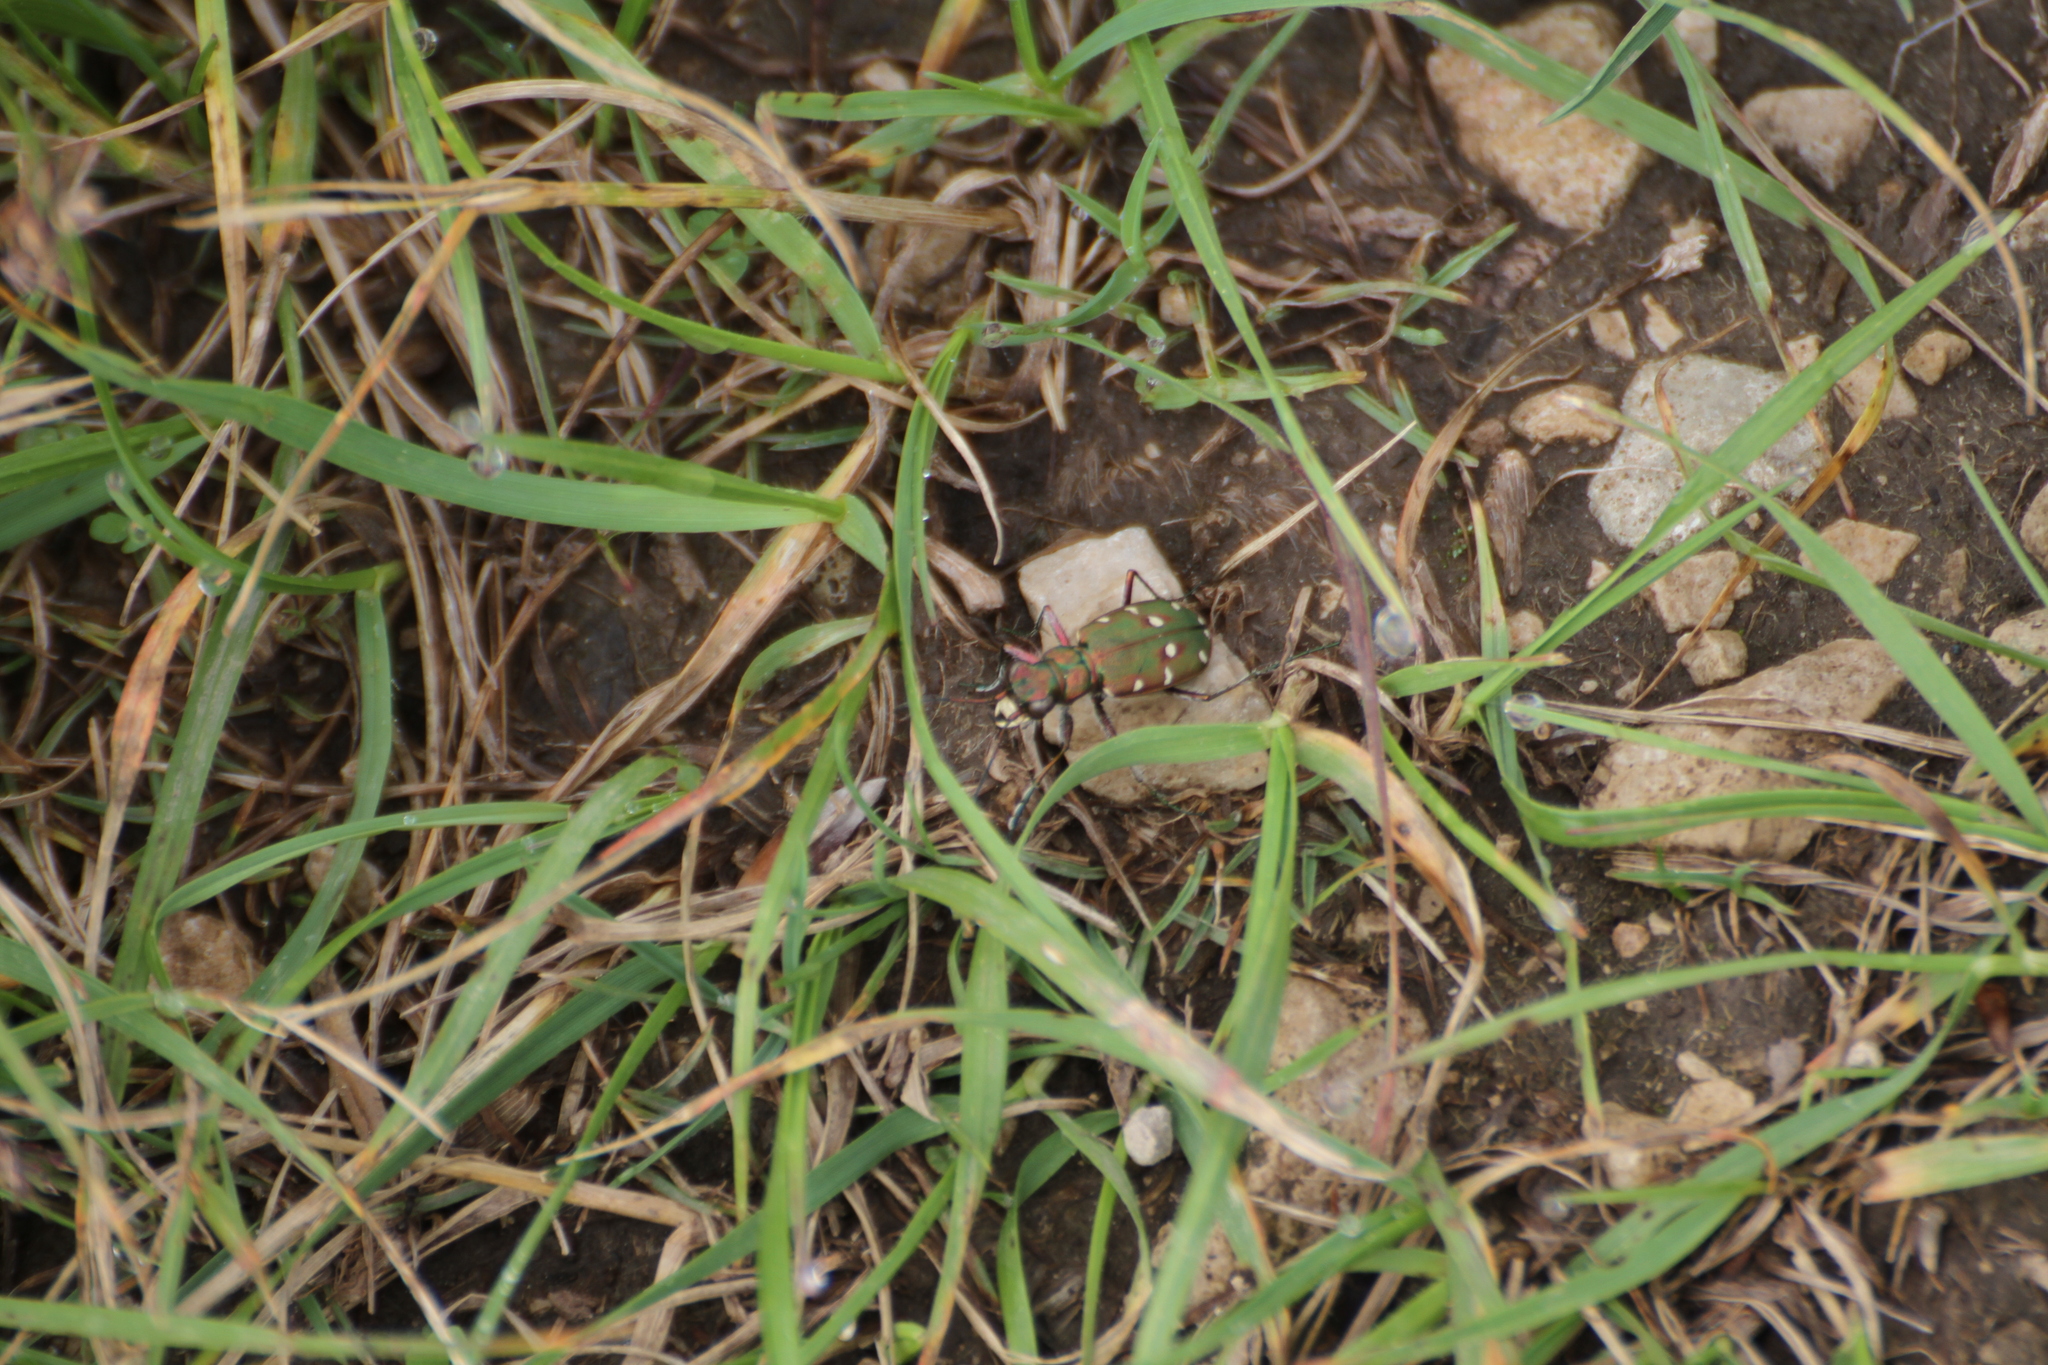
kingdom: Animalia
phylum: Arthropoda
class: Insecta
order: Coleoptera
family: Carabidae
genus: Cicindela
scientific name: Cicindela maroccana
